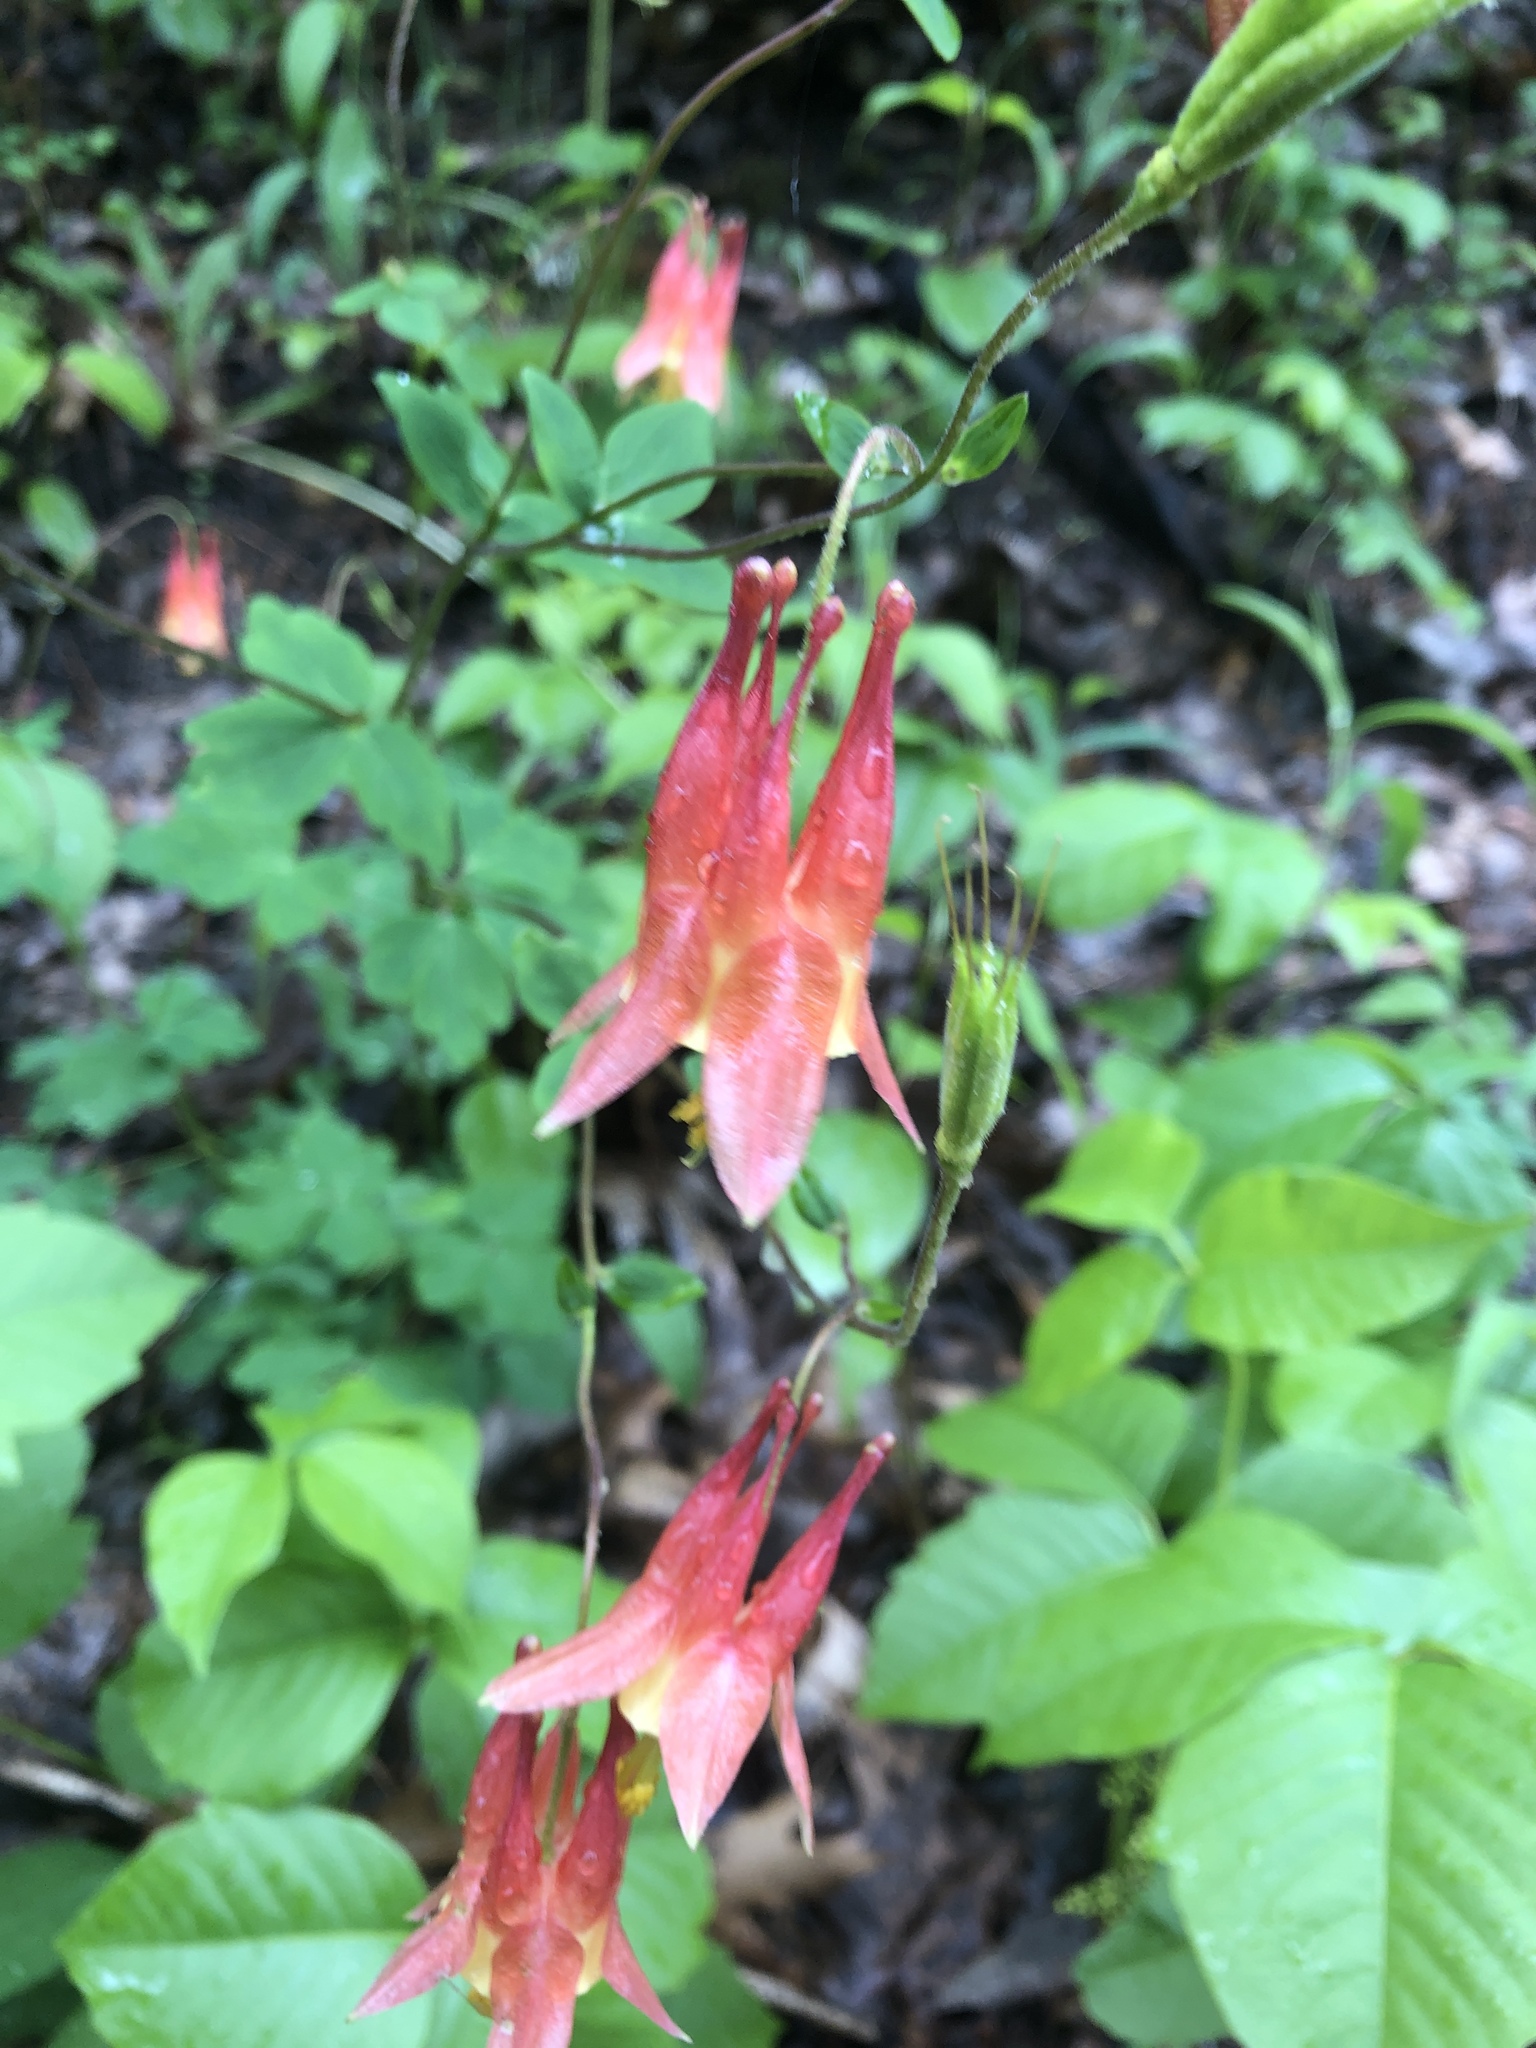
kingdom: Plantae
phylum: Tracheophyta
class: Magnoliopsida
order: Ranunculales
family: Ranunculaceae
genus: Aquilegia
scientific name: Aquilegia canadensis
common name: American columbine
